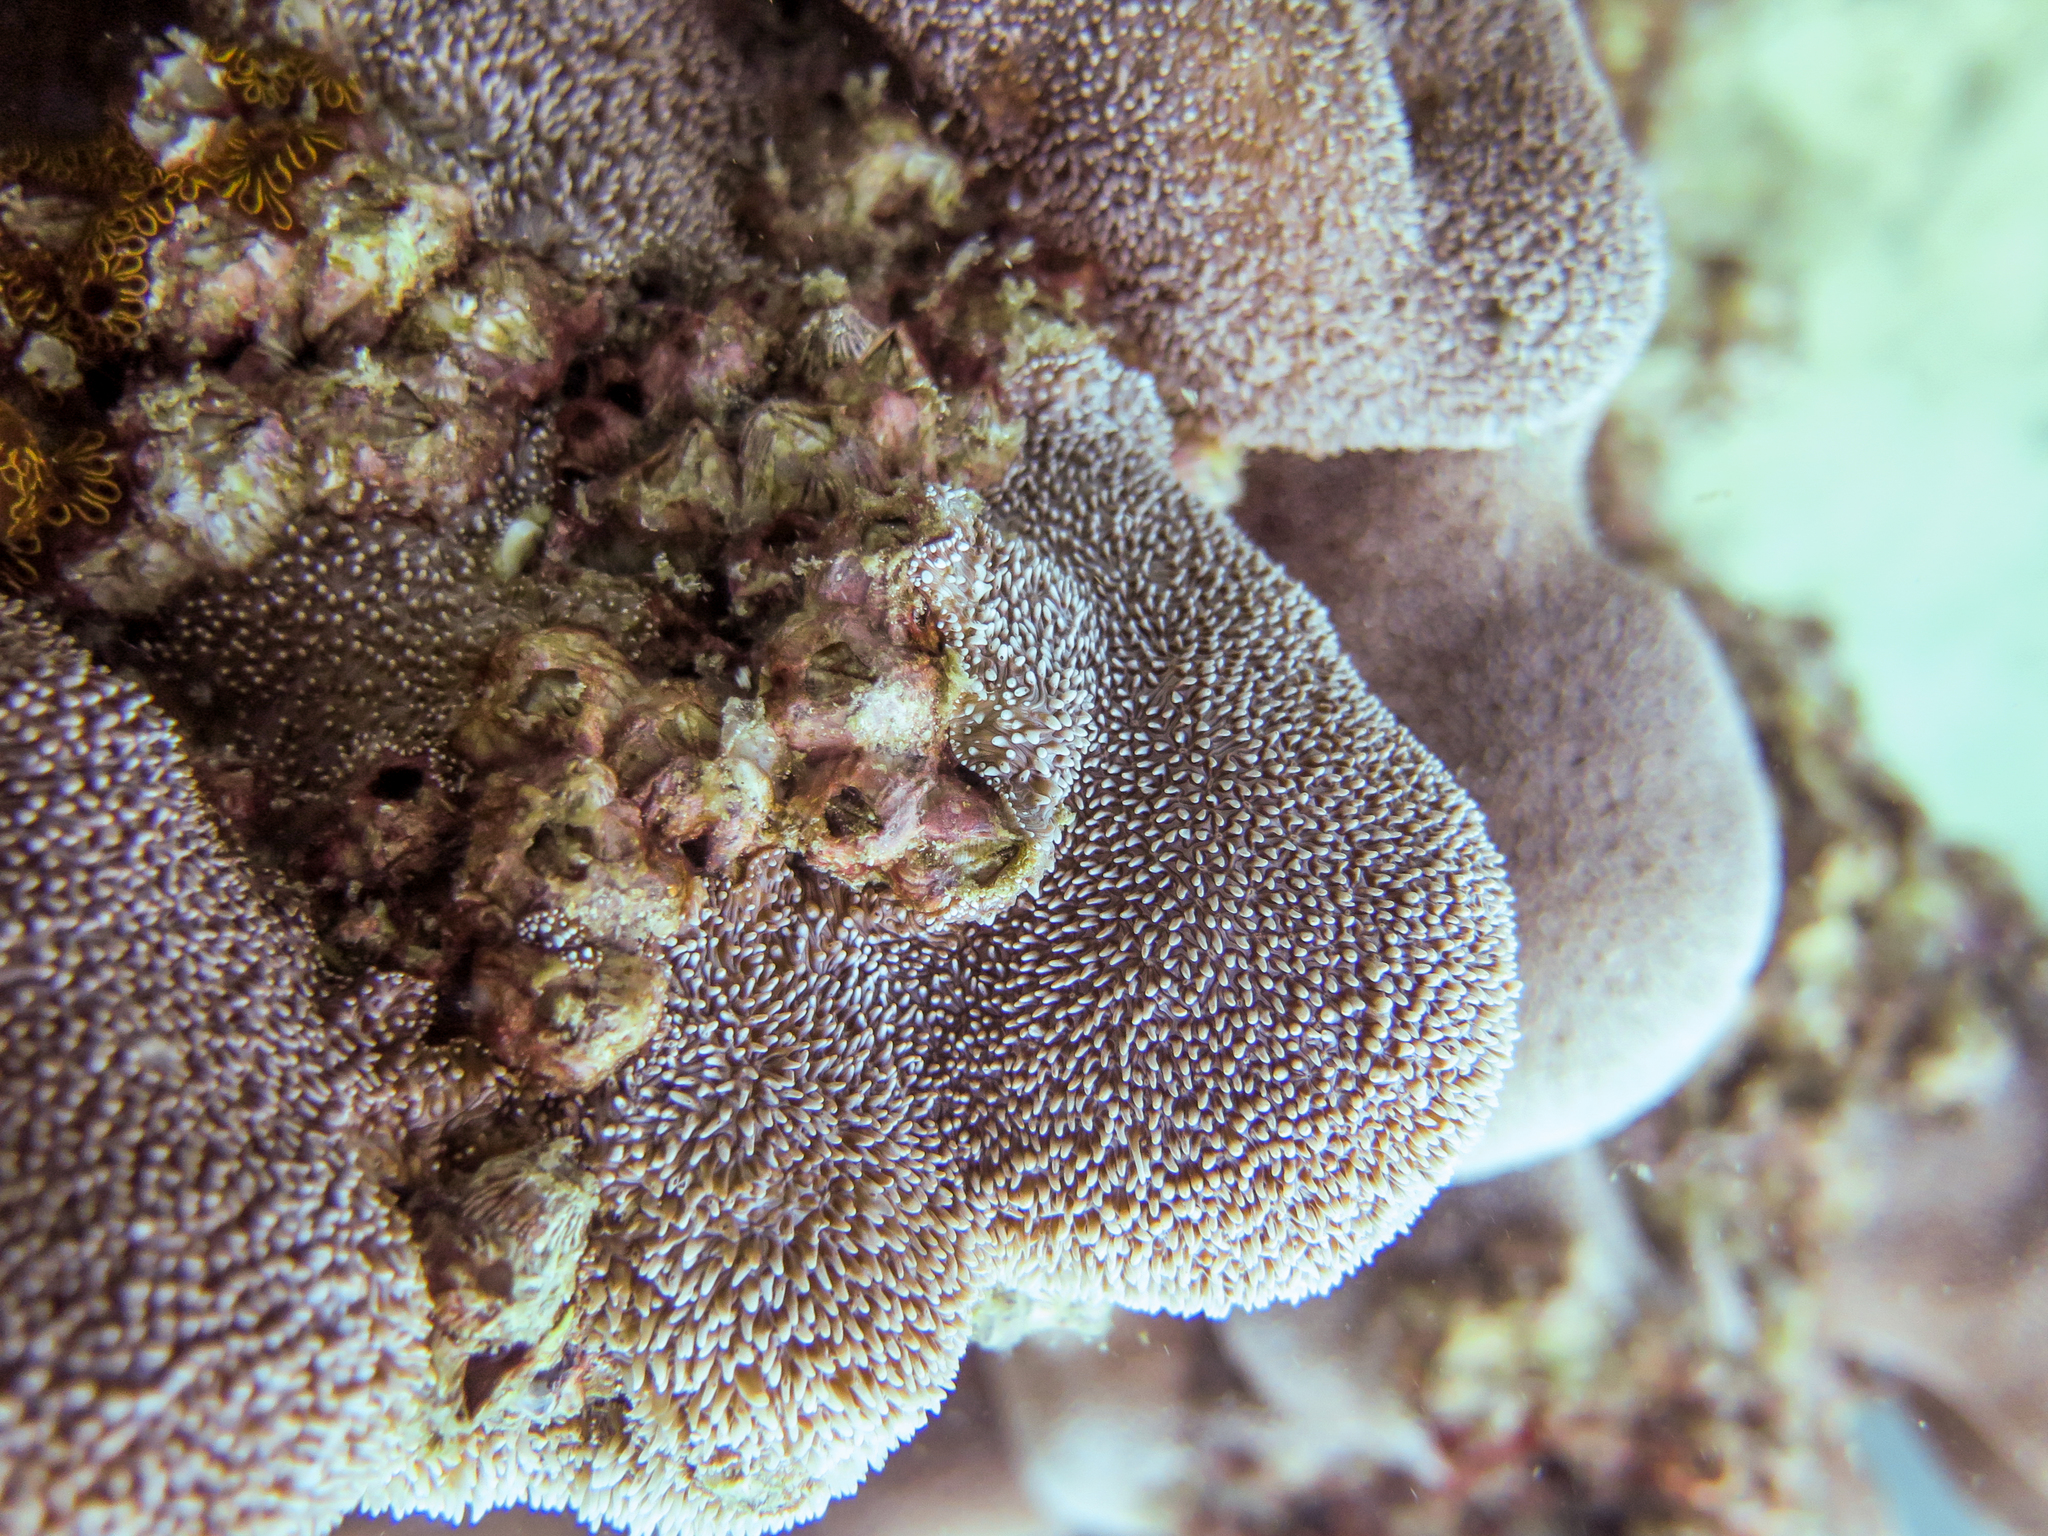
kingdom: Animalia
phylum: Cnidaria
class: Anthozoa
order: Scleractinia
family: Agariciidae
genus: Pavona
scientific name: Pavona gigantea
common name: Leaf coral
